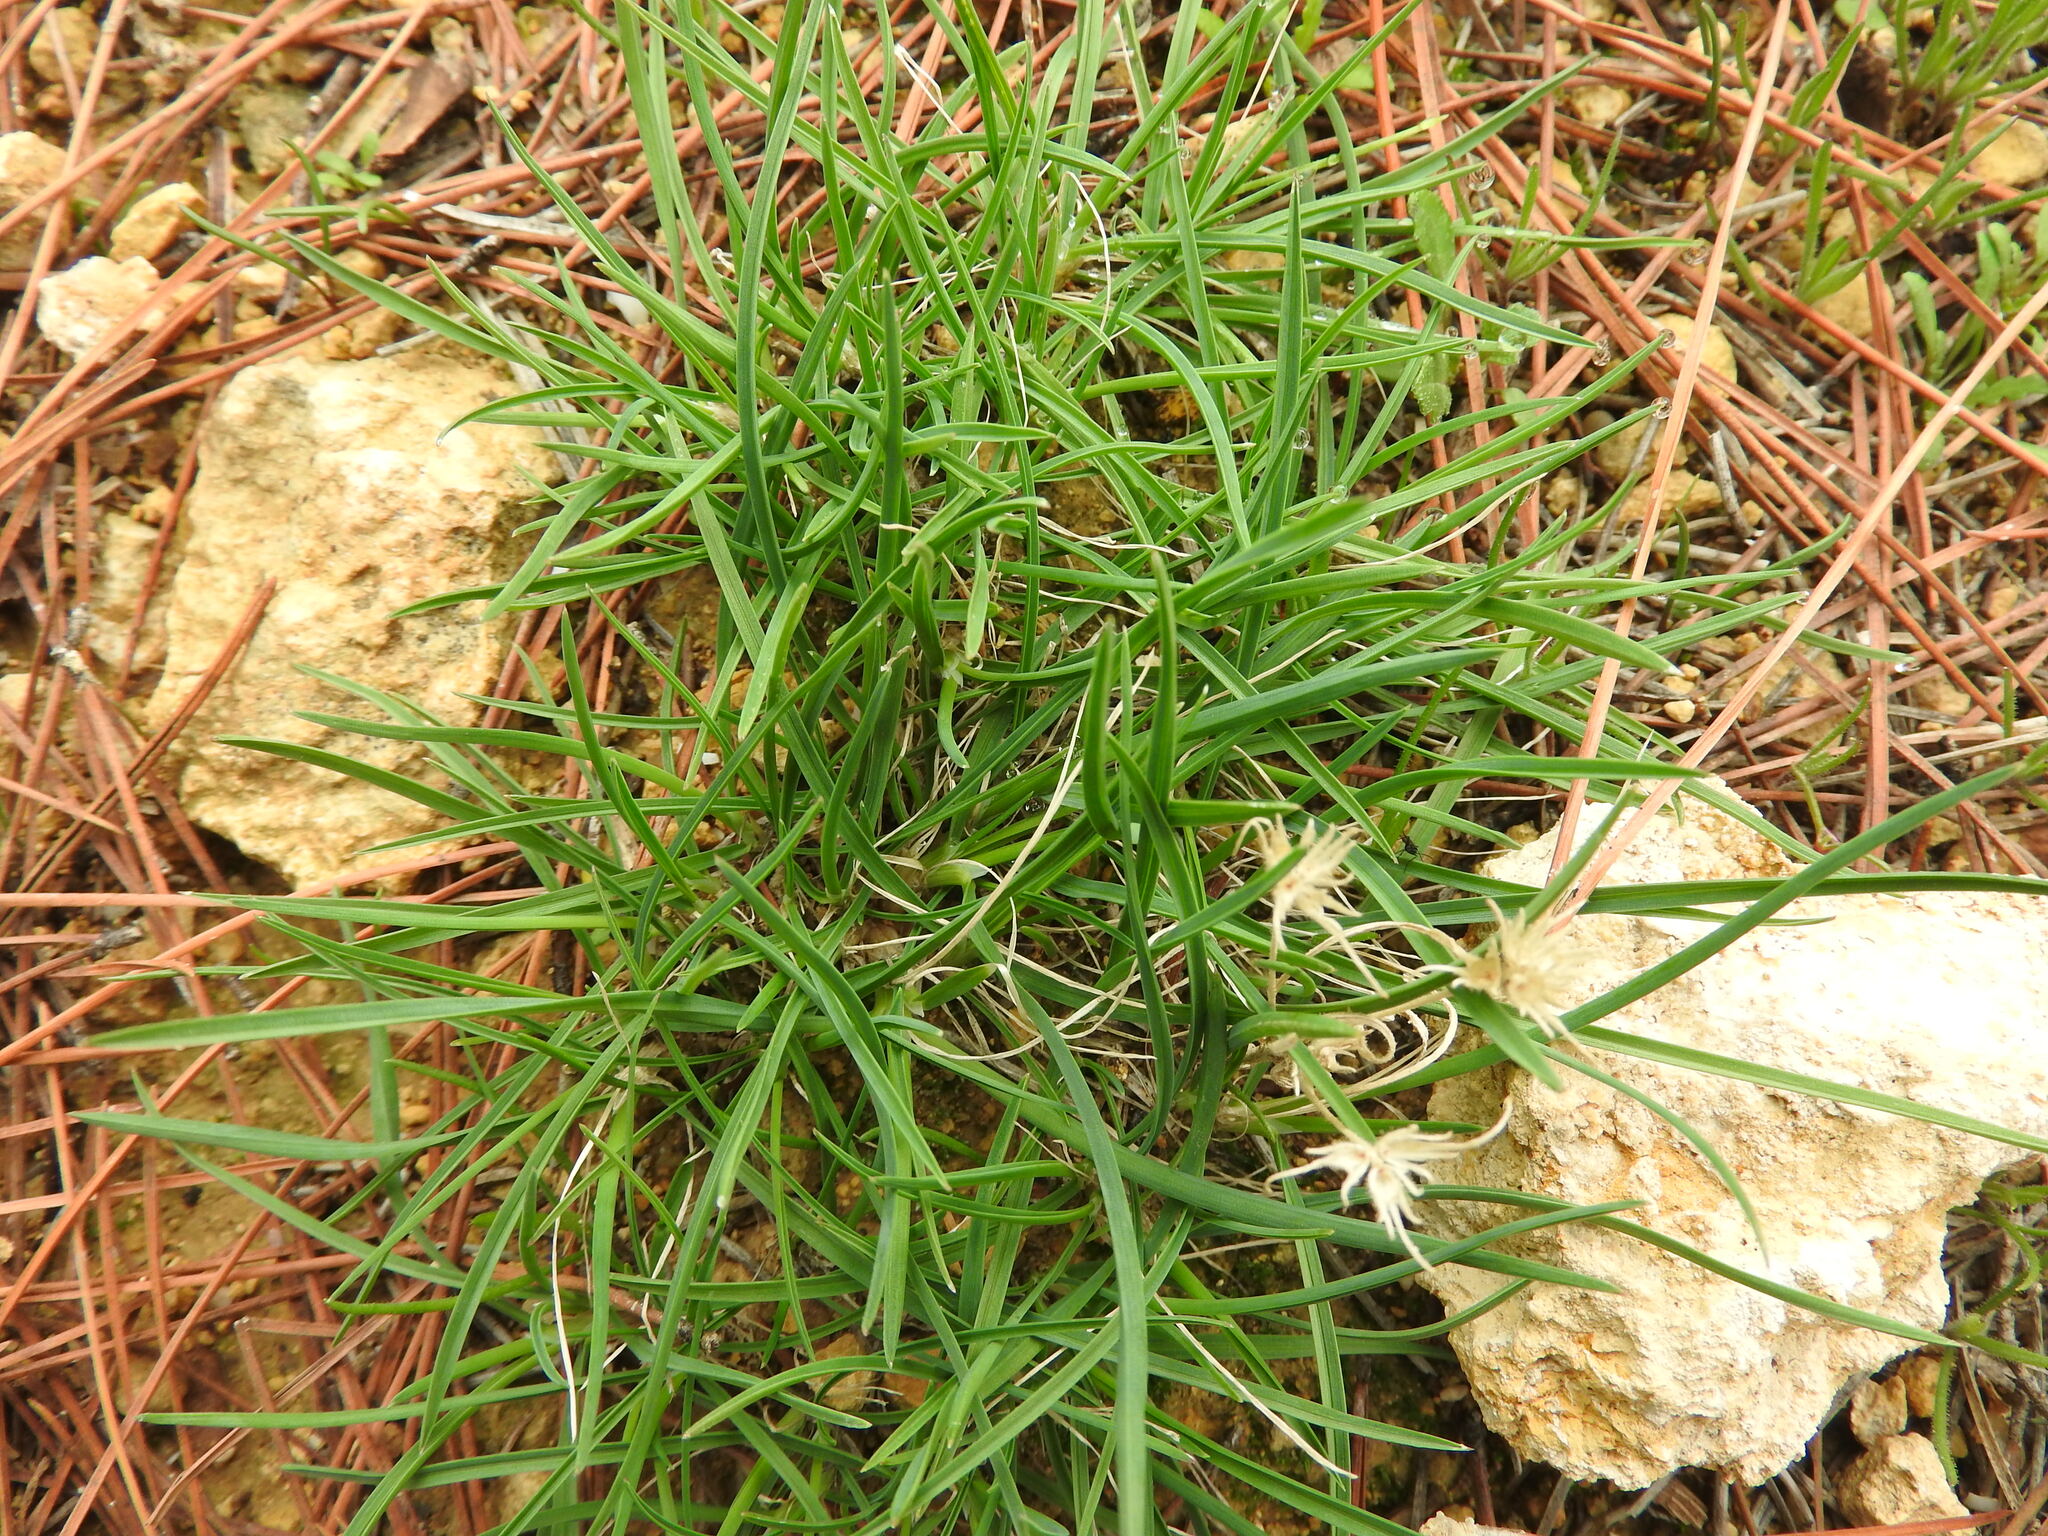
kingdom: Plantae
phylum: Tracheophyta
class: Liliopsida
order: Poales
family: Poaceae
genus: Poa
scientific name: Poa bulbosa
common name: Bulbous bluegrass
